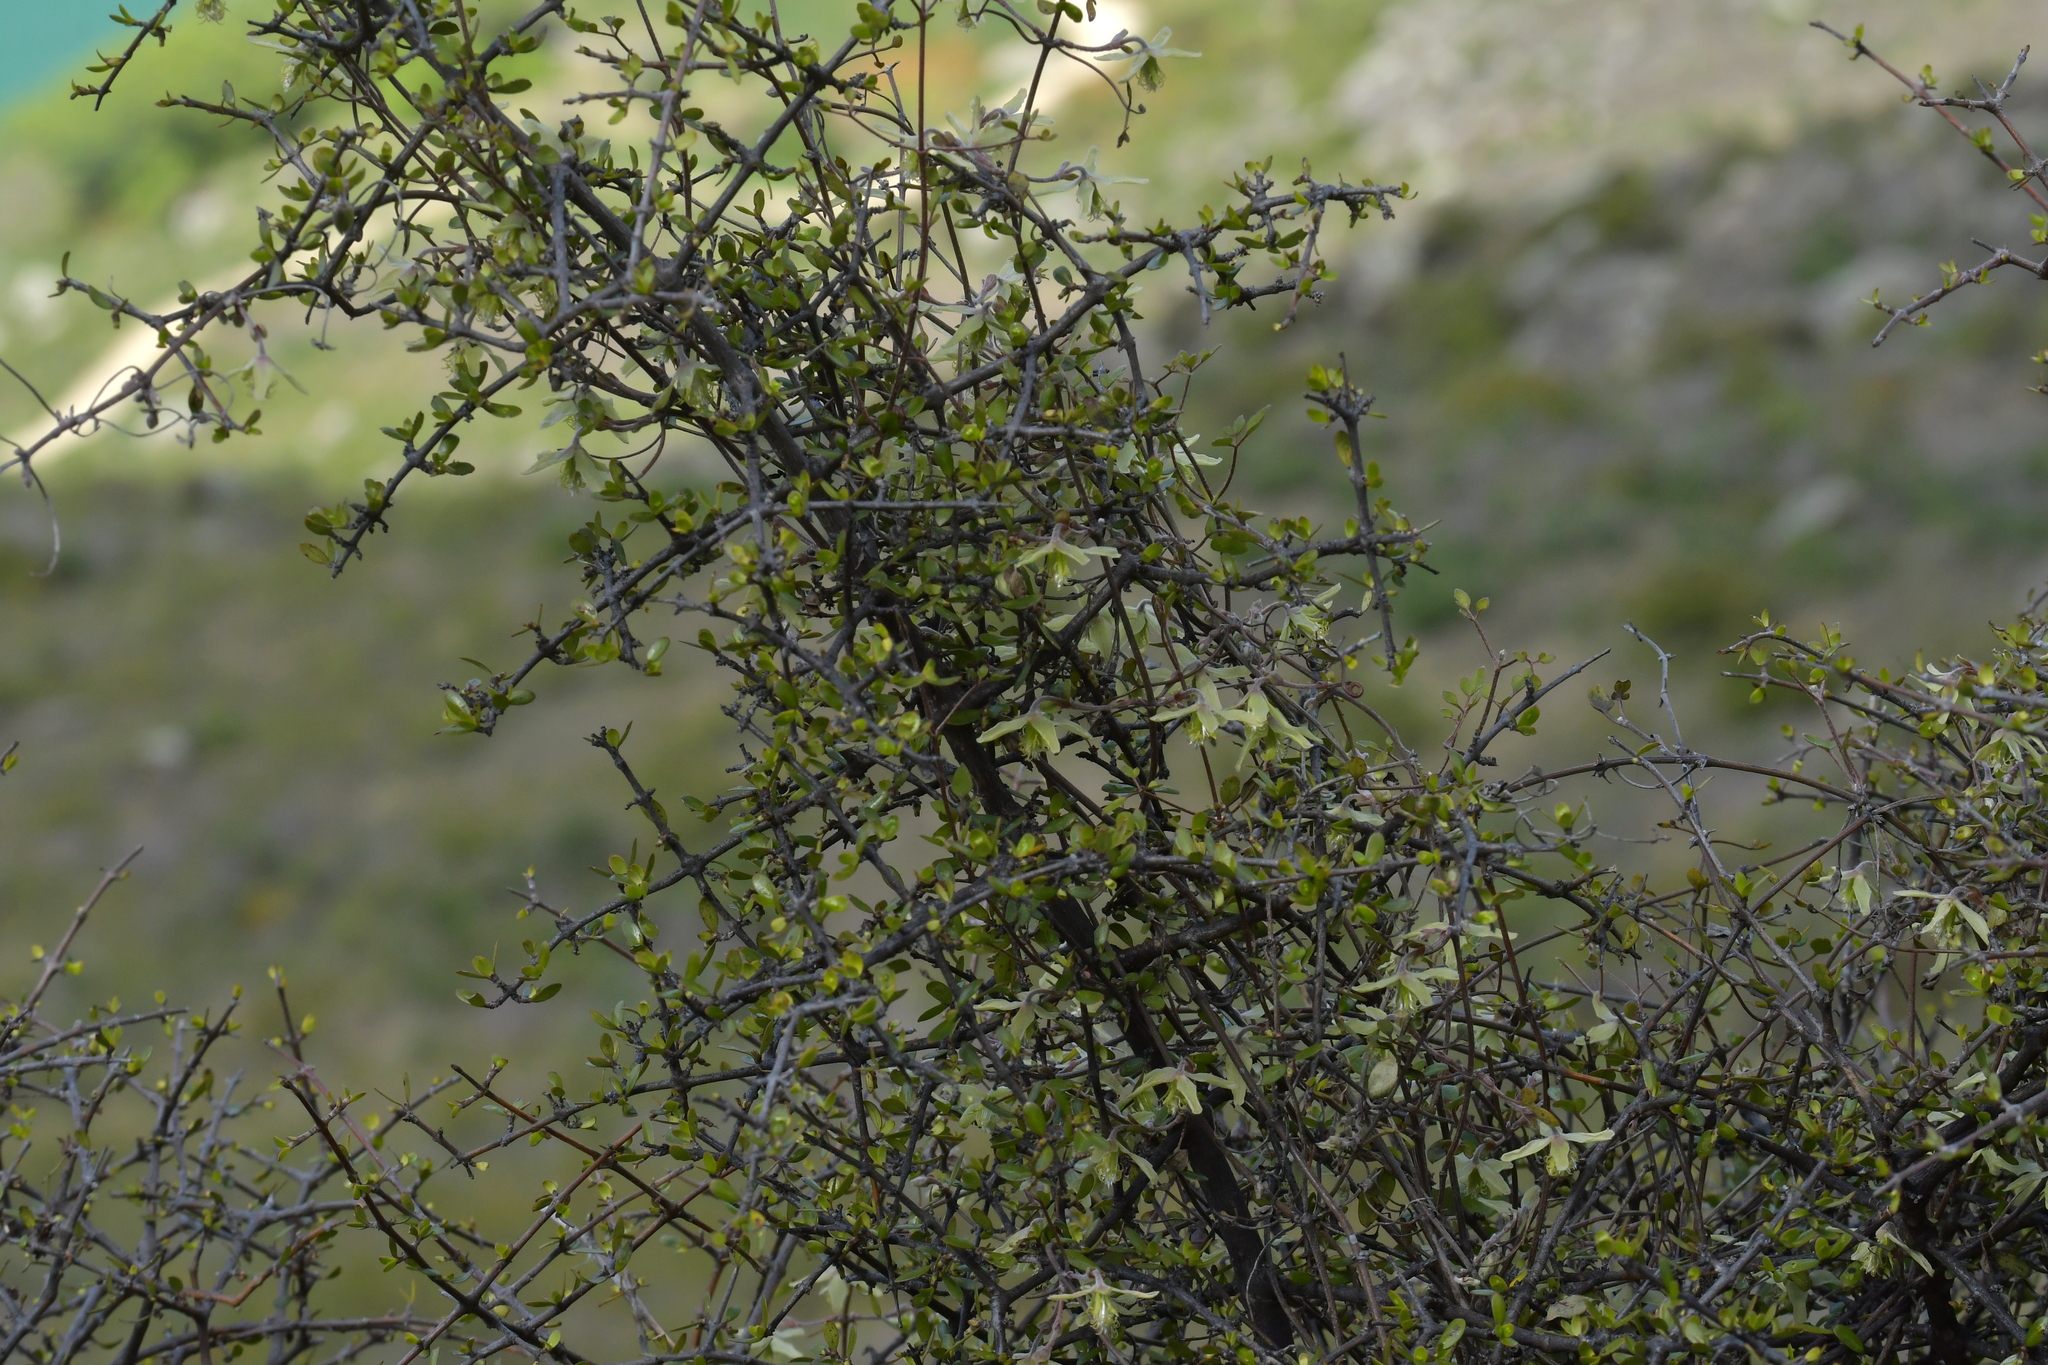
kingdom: Plantae
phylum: Tracheophyta
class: Magnoliopsida
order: Ranunculales
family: Ranunculaceae
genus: Clematis
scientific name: Clematis marata
